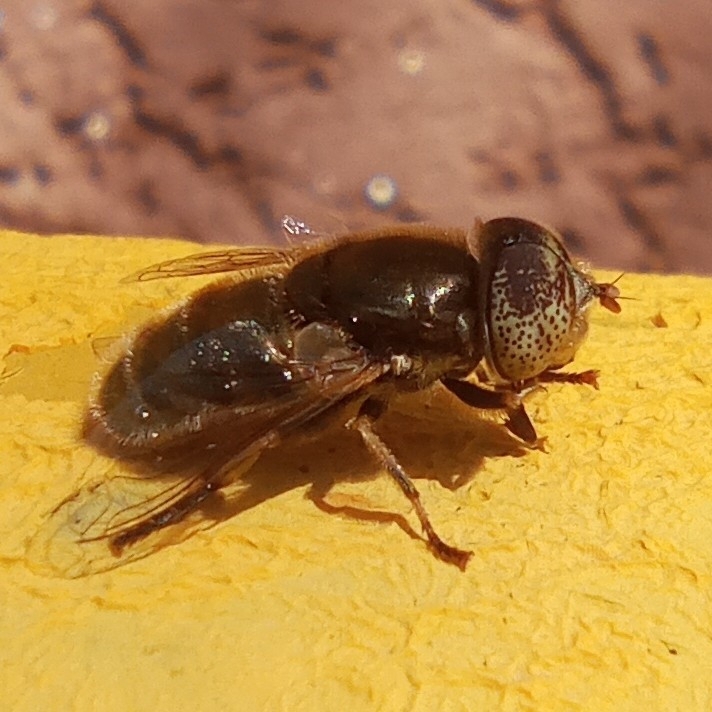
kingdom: Animalia
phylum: Arthropoda
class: Insecta
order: Diptera
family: Syrphidae
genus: Eristalinus
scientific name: Eristalinus aeneus
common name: Syrphid fly
